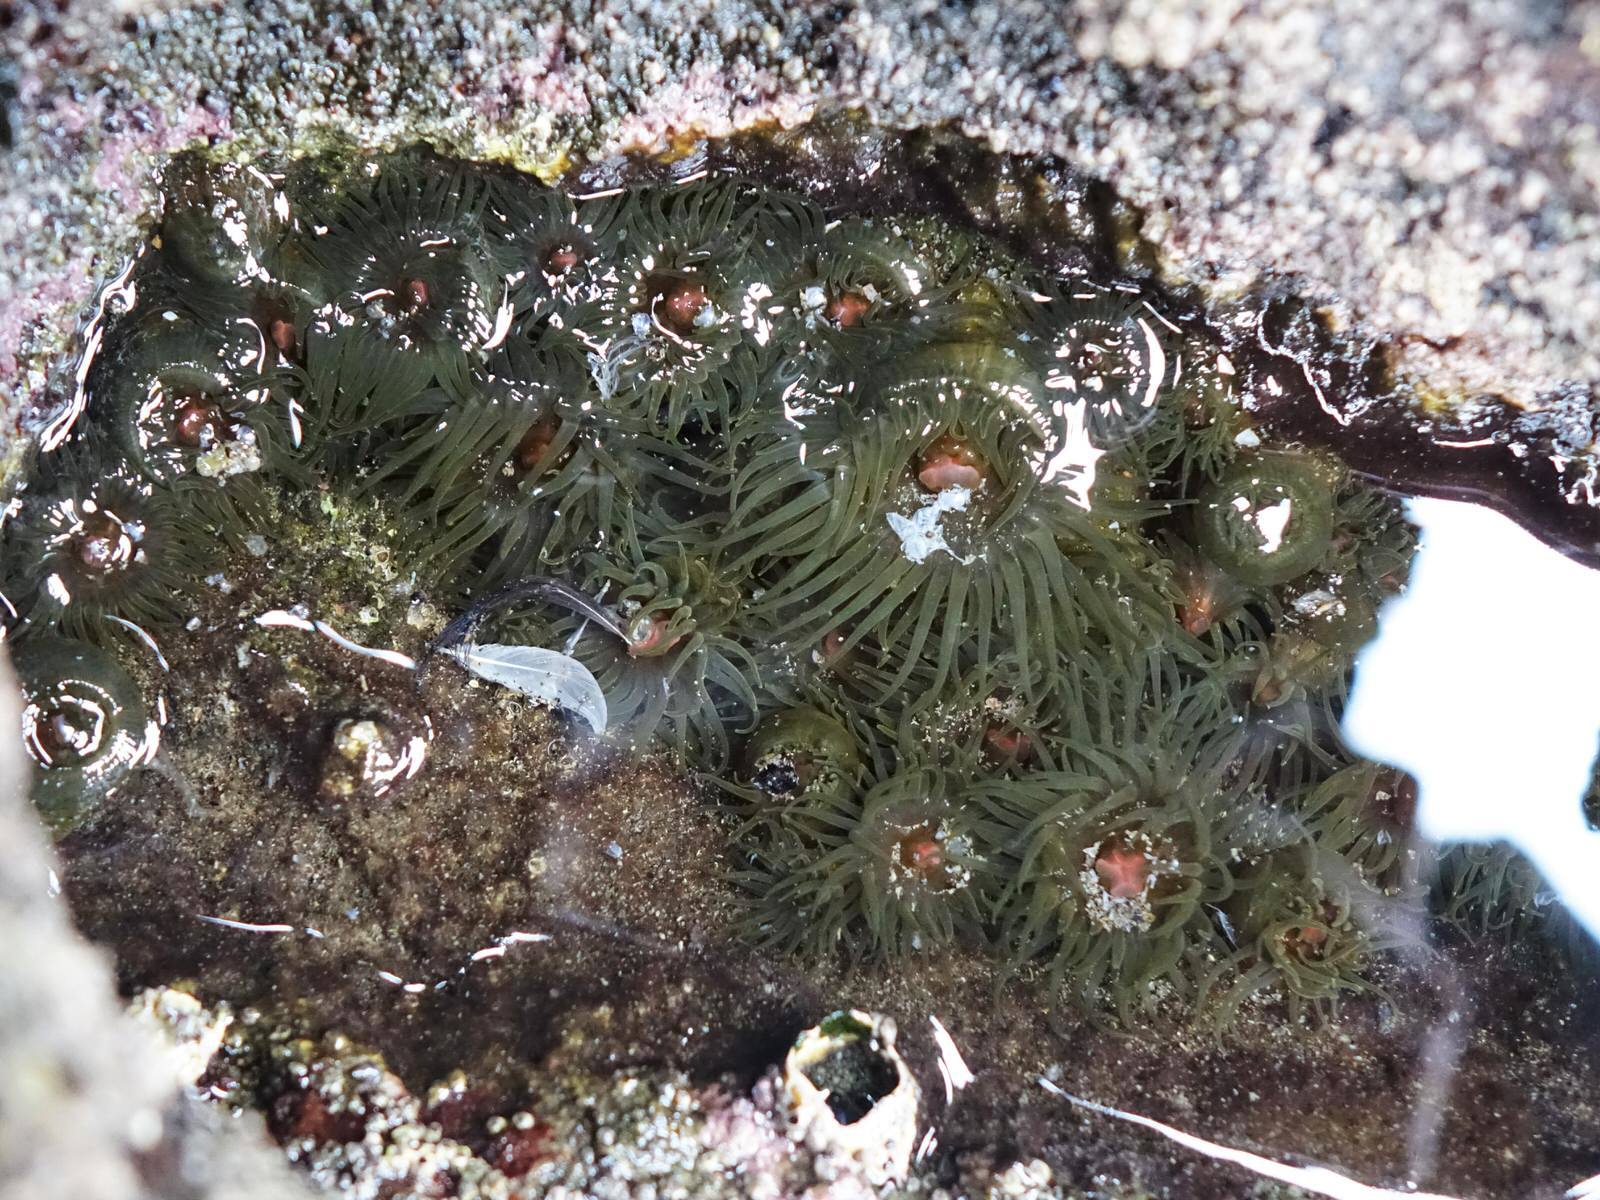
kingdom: Animalia
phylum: Cnidaria
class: Anthozoa
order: Actiniaria
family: Actiniidae
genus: Isactinia
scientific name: Isactinia olivacea
